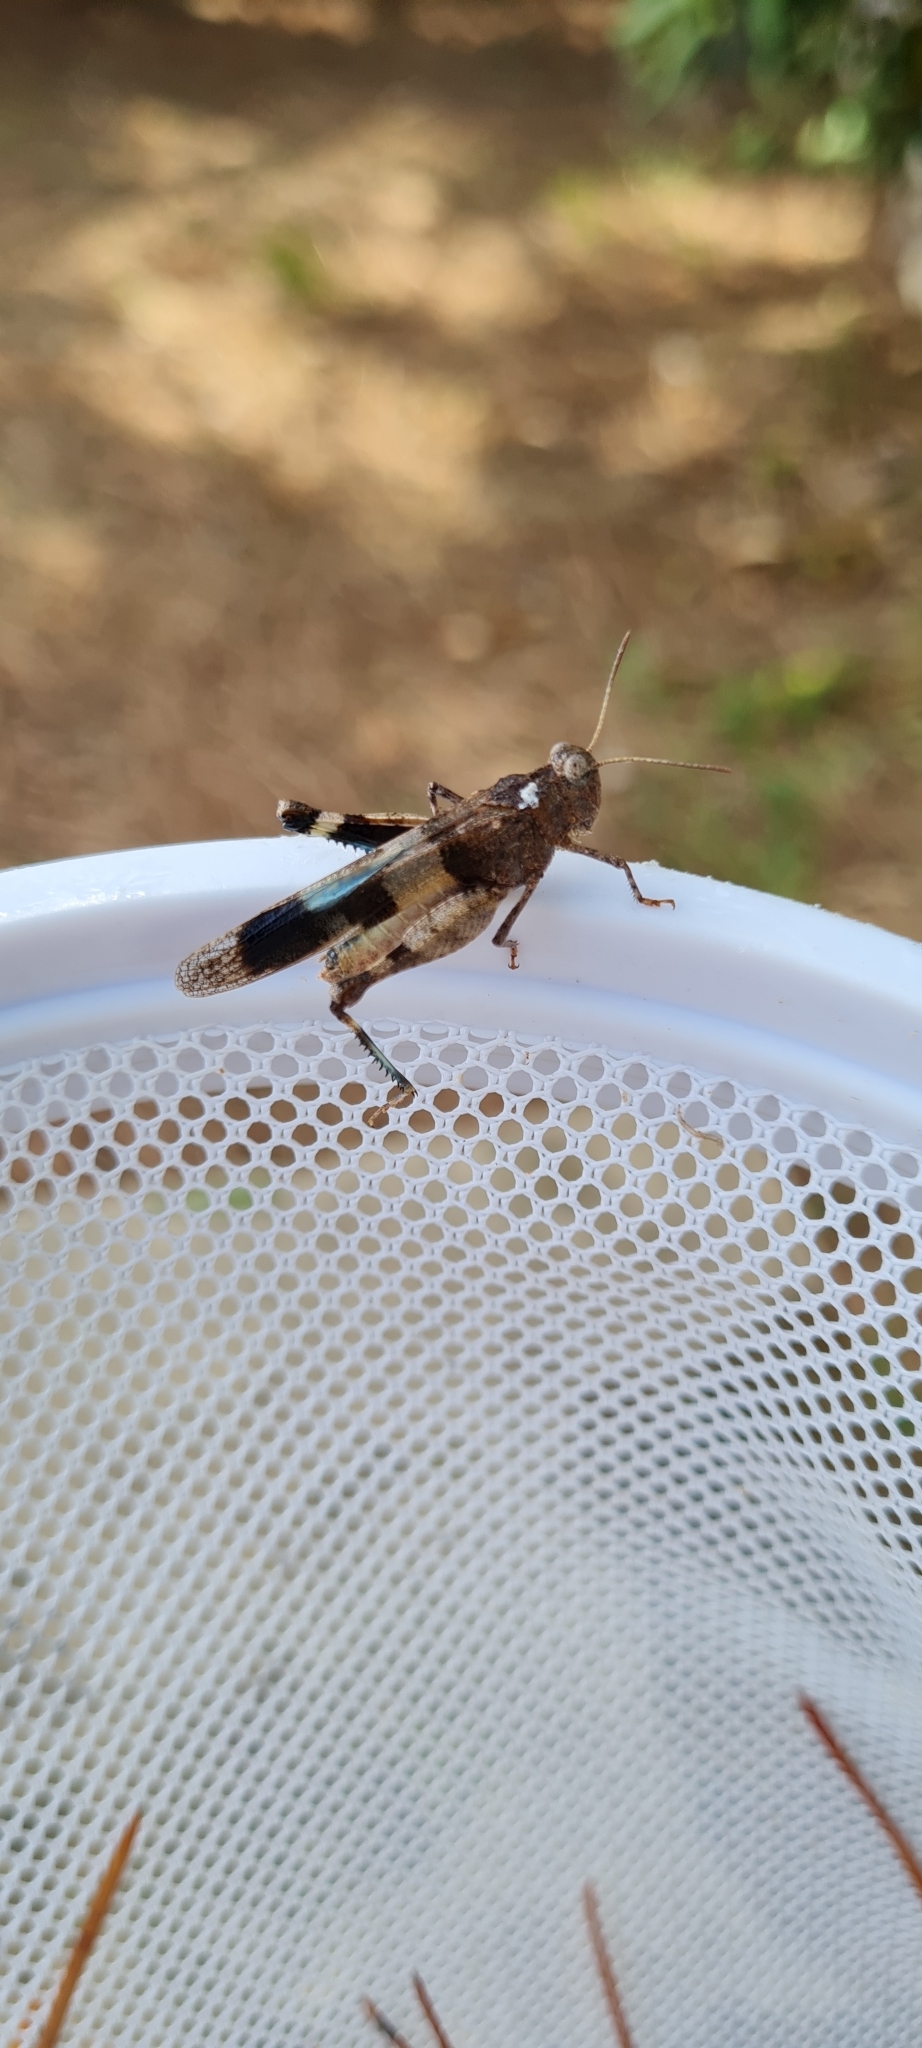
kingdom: Animalia
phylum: Arthropoda
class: Insecta
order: Orthoptera
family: Acrididae
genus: Oedipoda
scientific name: Oedipoda caerulescens
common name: Blue-winged grasshopper
